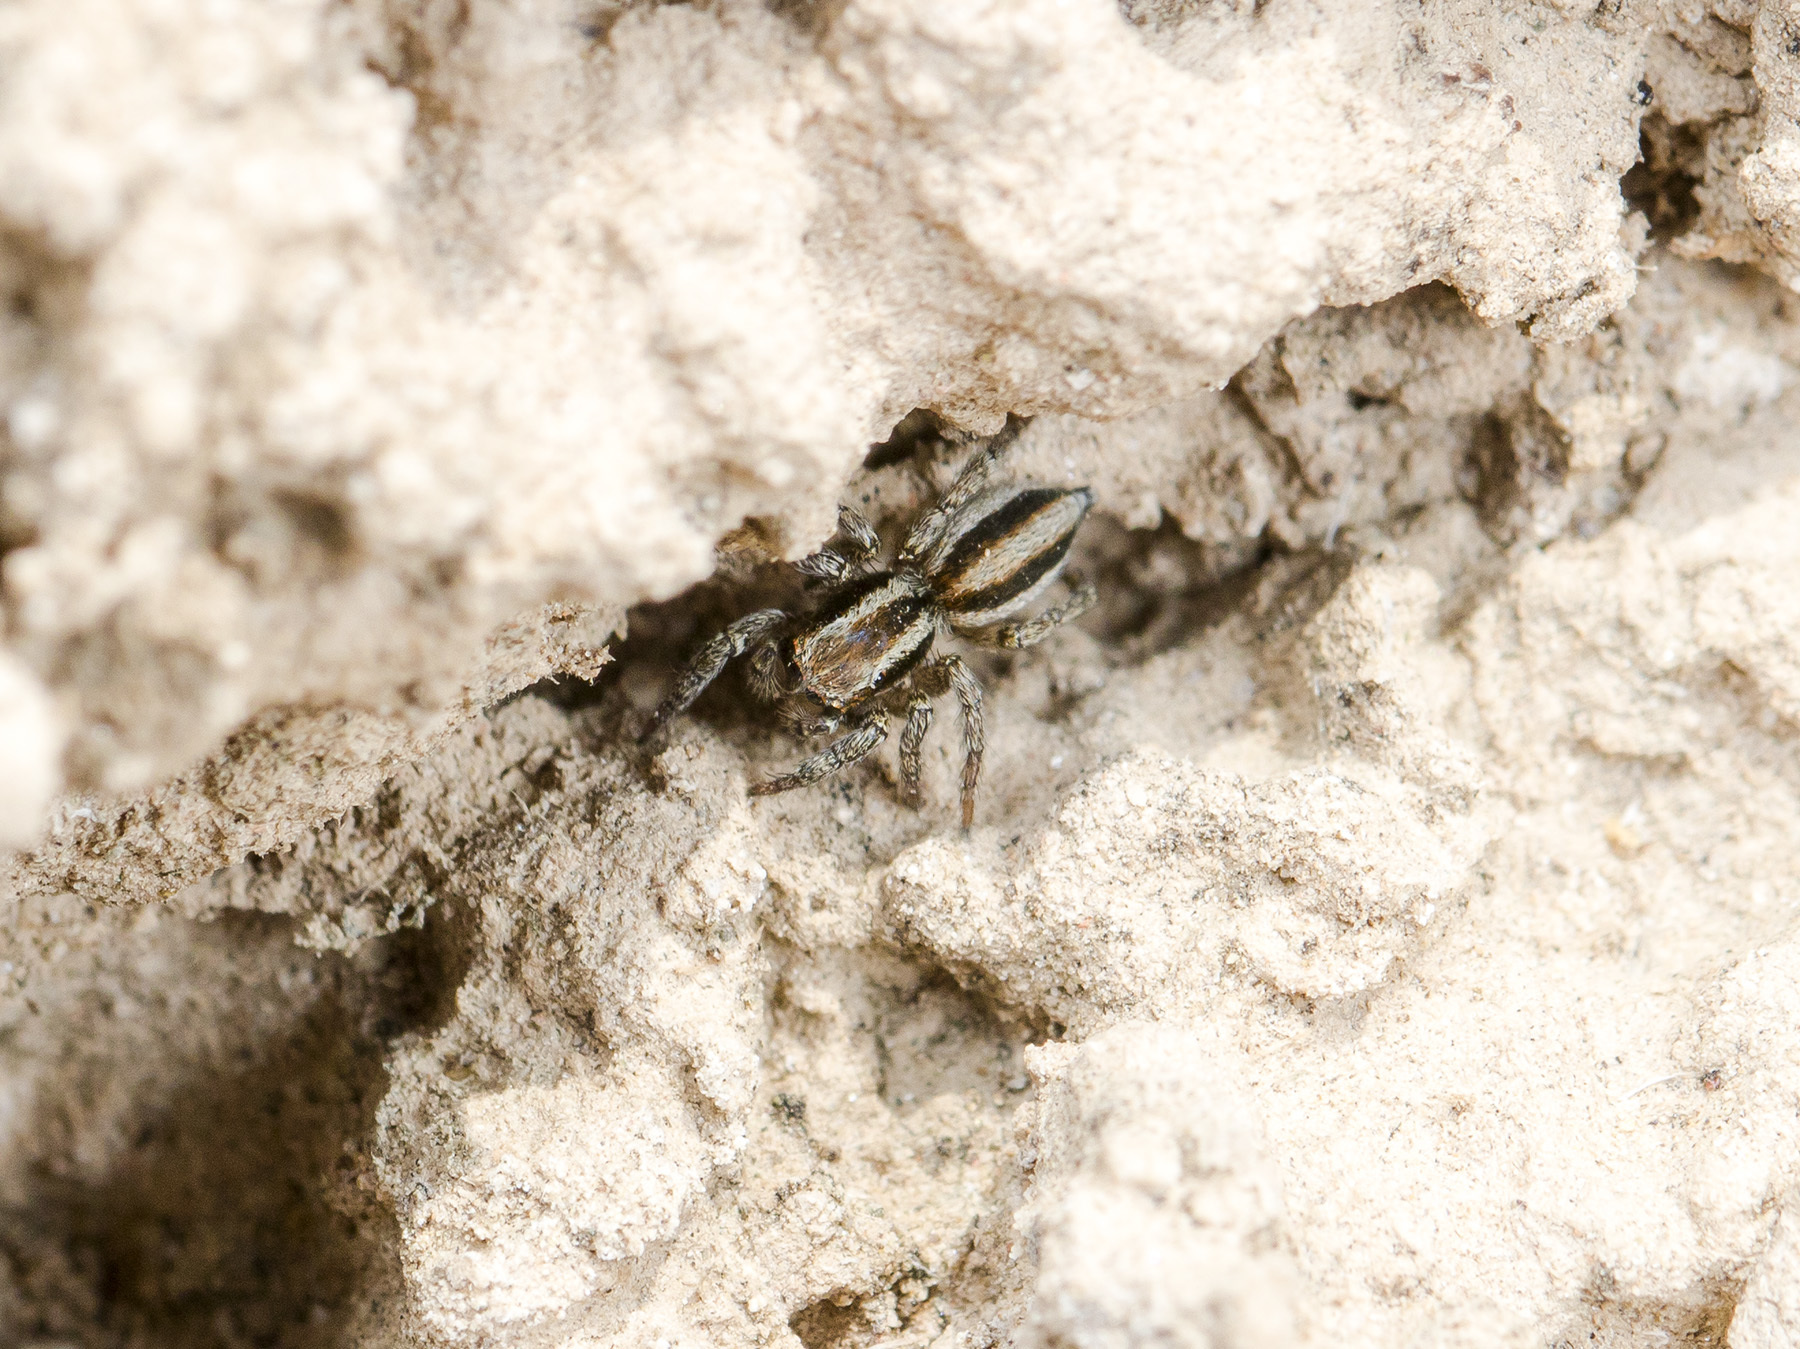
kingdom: Animalia
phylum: Arthropoda
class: Arachnida
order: Araneae
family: Salticidae
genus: Phlegra
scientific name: Phlegra andreevae
